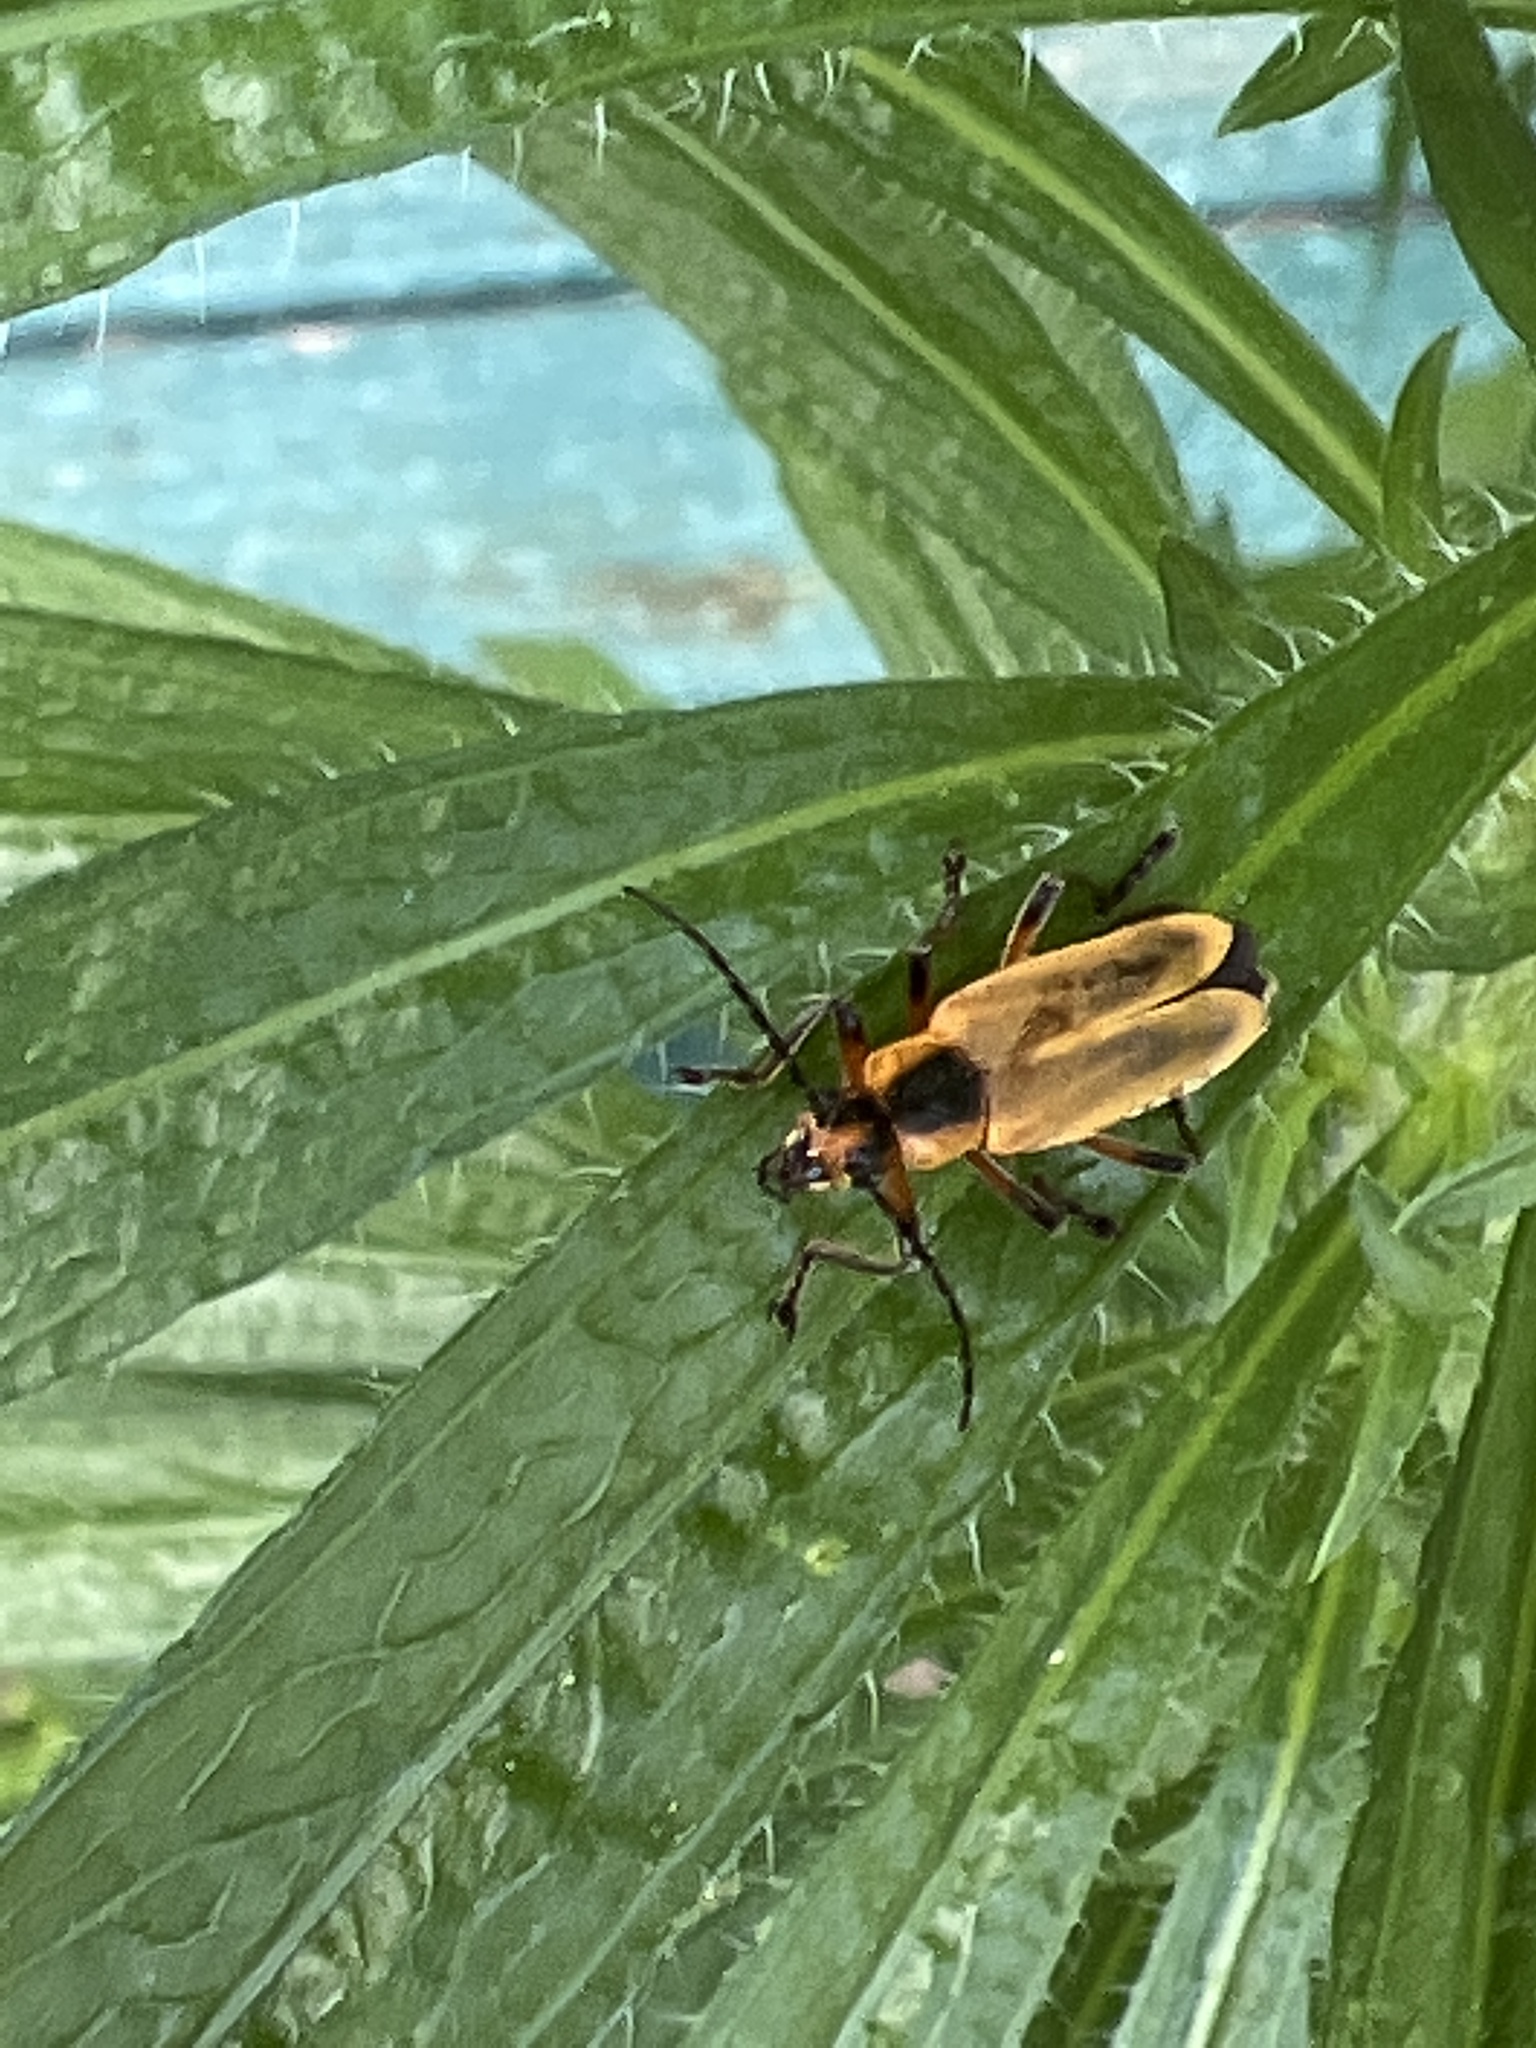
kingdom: Animalia
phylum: Arthropoda
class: Insecta
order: Coleoptera
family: Cantharidae
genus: Chauliognathus
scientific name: Chauliognathus marginatus
